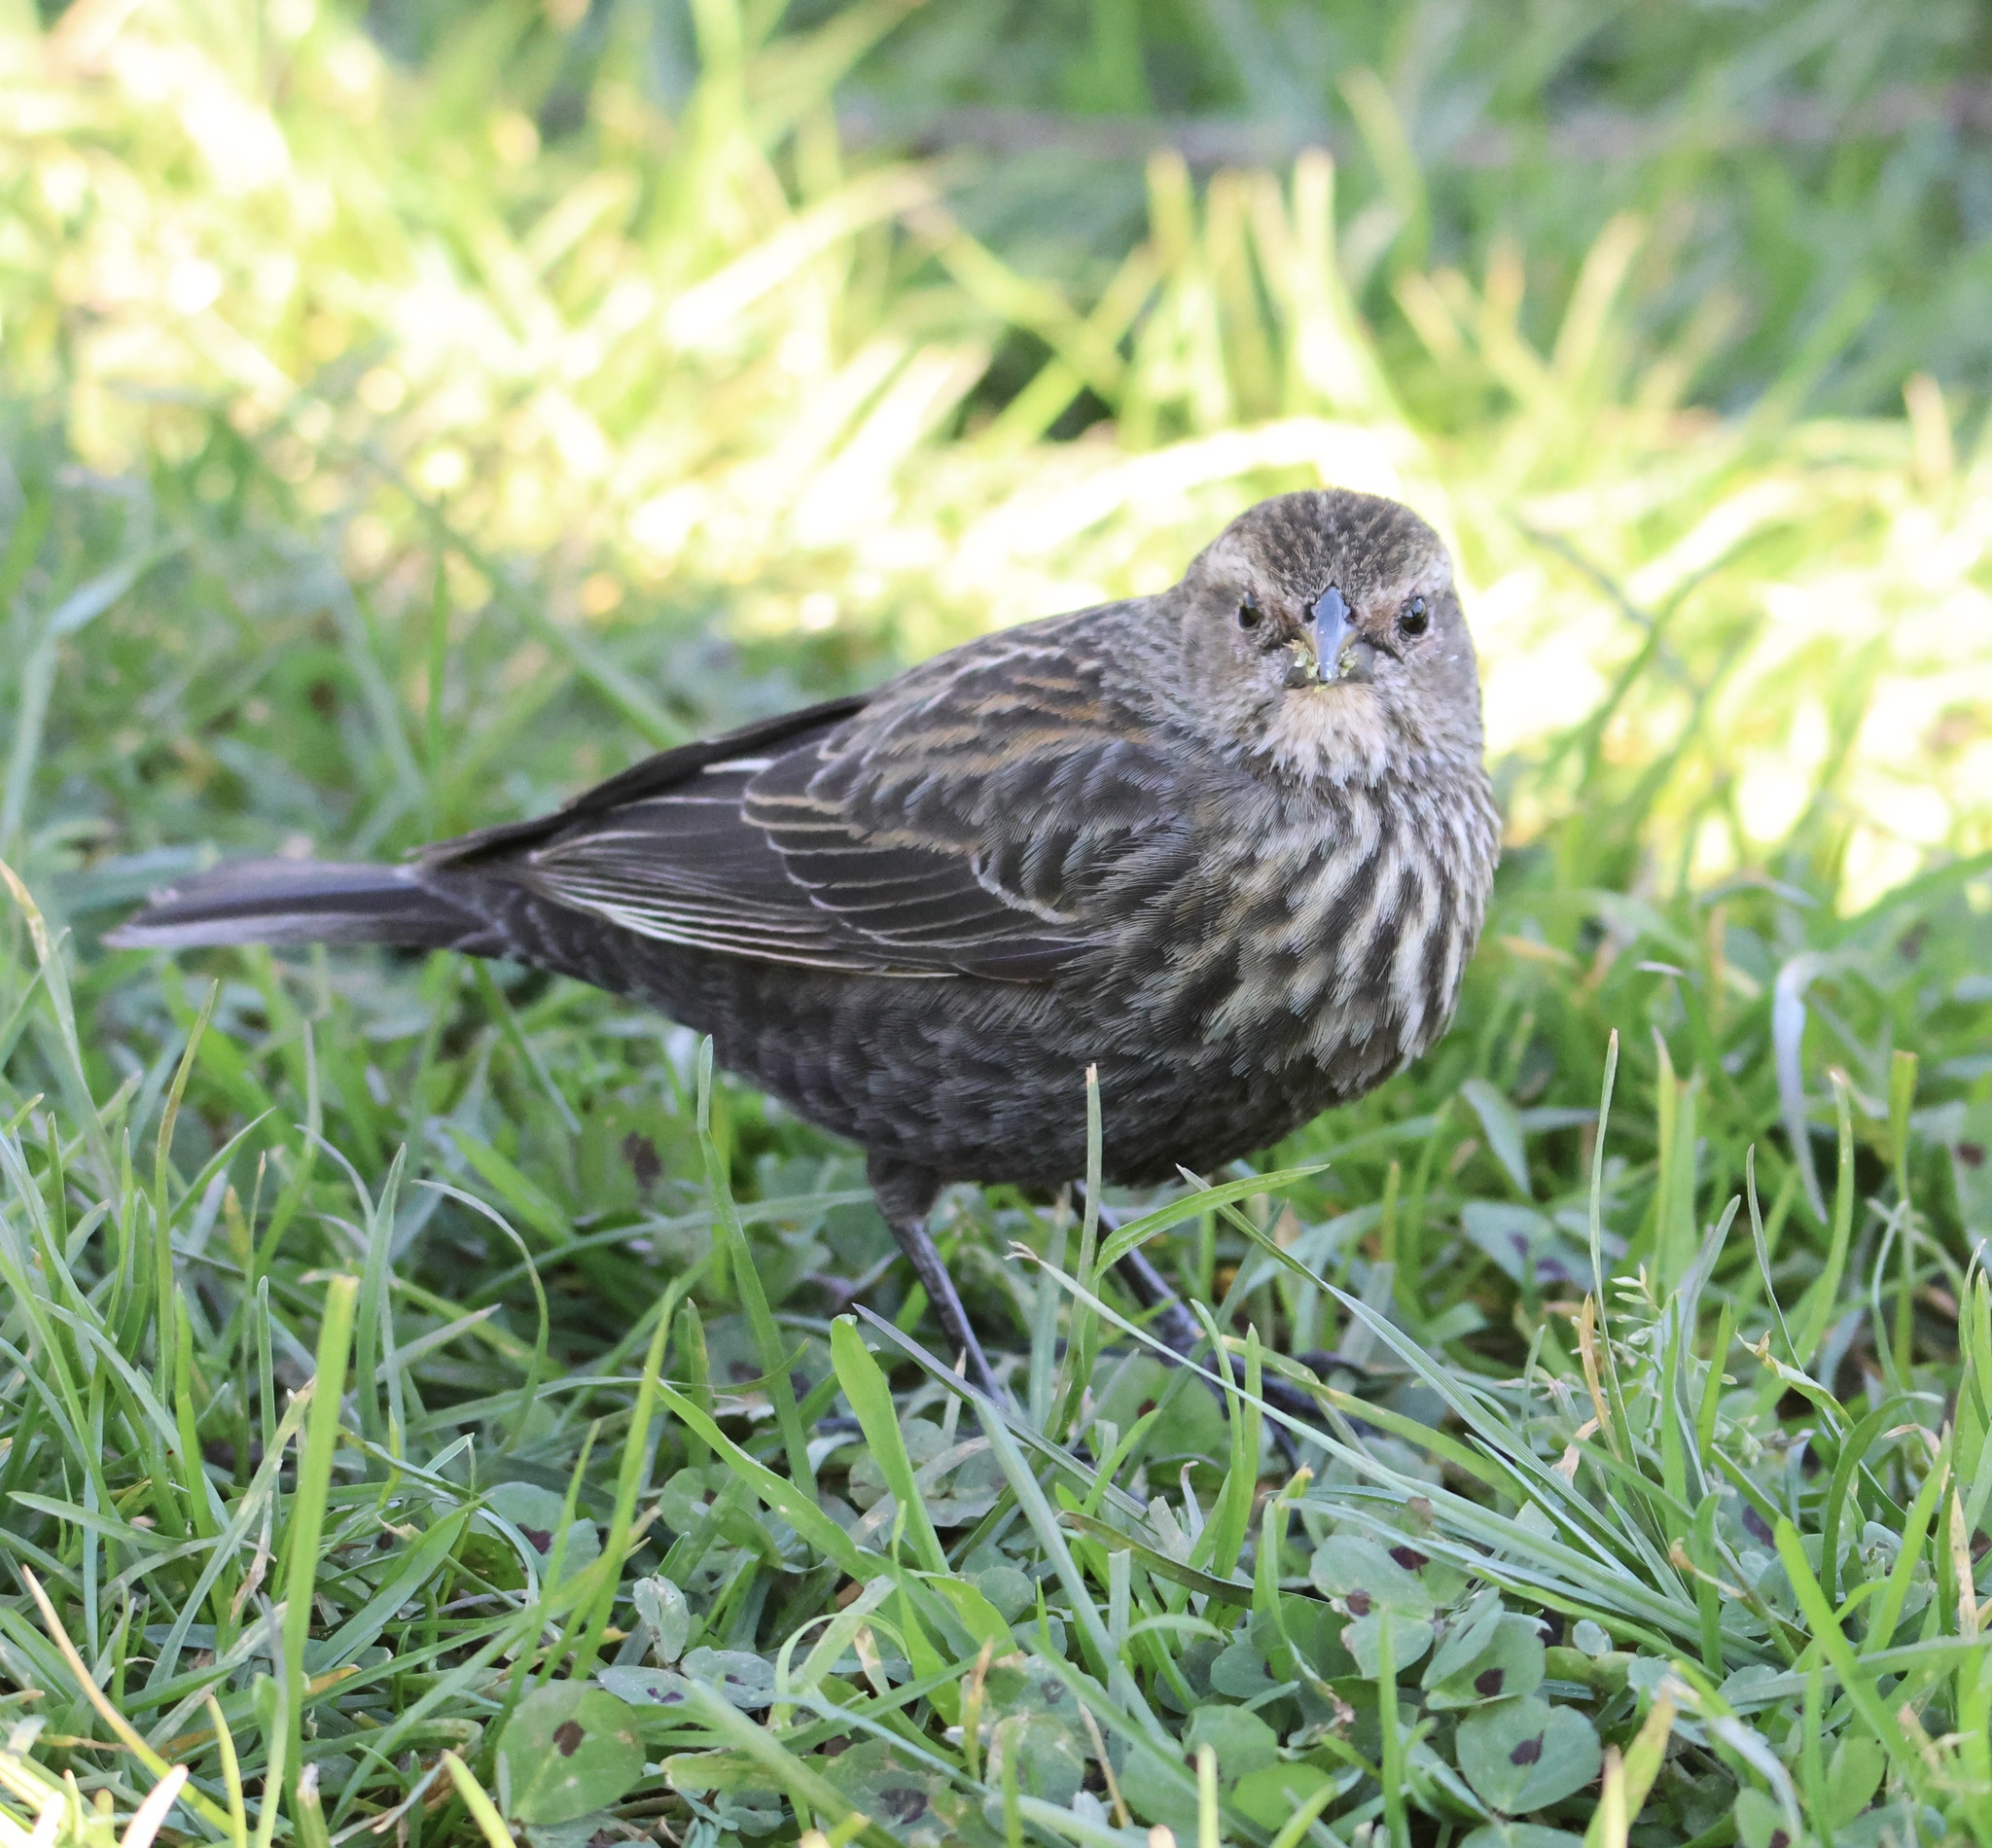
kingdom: Animalia
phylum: Chordata
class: Aves
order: Passeriformes
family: Icteridae
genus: Agelaius
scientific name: Agelaius phoeniceus
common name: Red-winged blackbird
